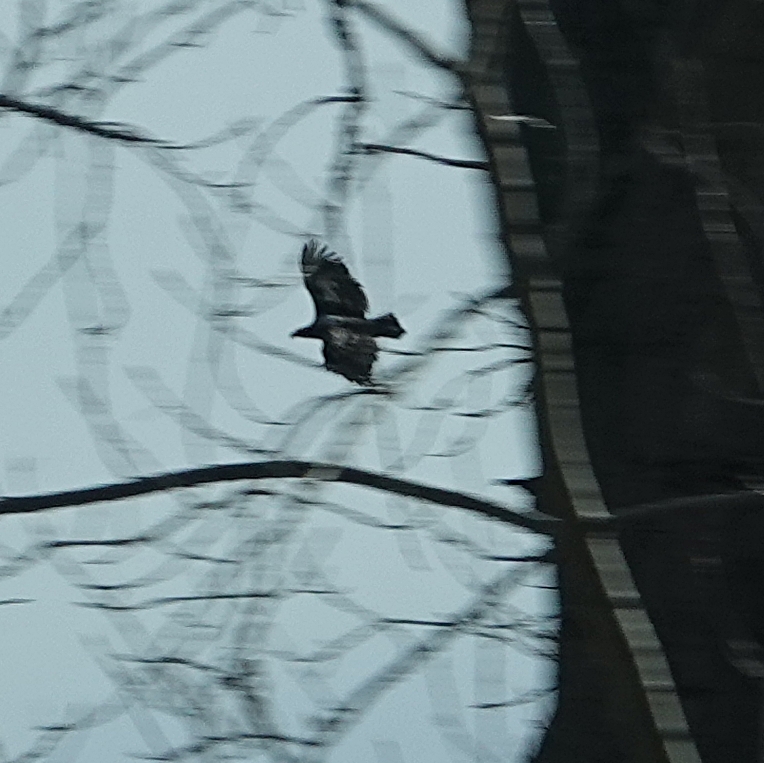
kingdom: Animalia
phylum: Chordata
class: Aves
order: Accipitriformes
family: Accipitridae
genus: Haliaeetus
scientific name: Haliaeetus leucocephalus
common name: Bald eagle
